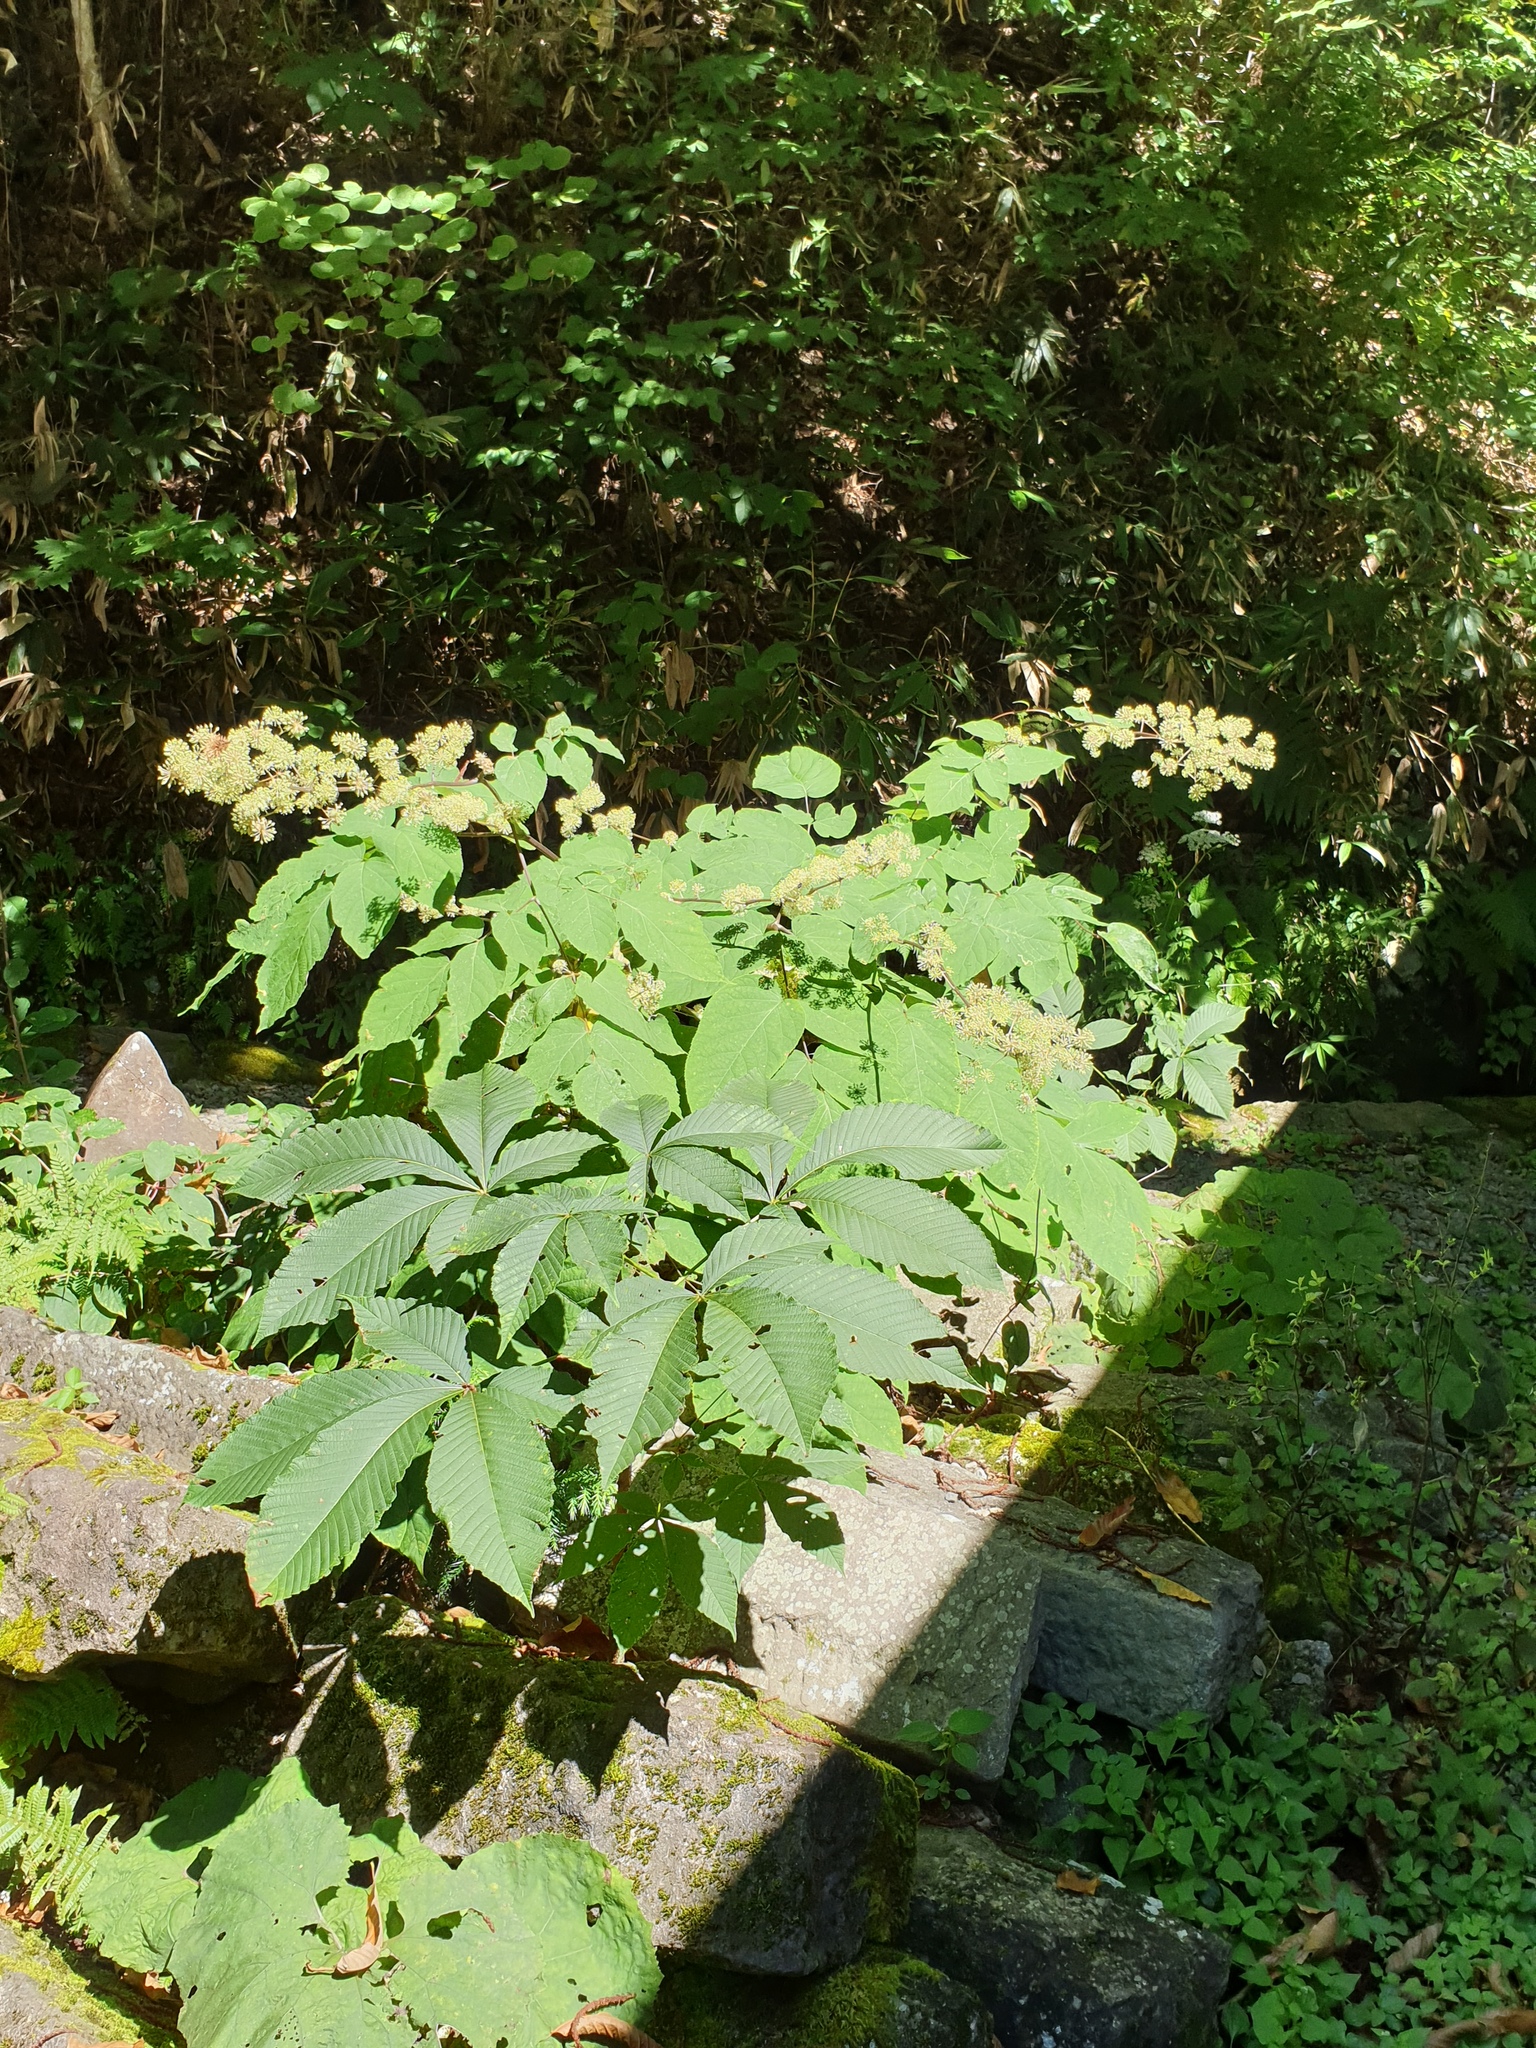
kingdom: Plantae
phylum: Tracheophyta
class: Magnoliopsida
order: Apiales
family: Araliaceae
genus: Aralia
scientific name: Aralia cordata
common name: Udo
